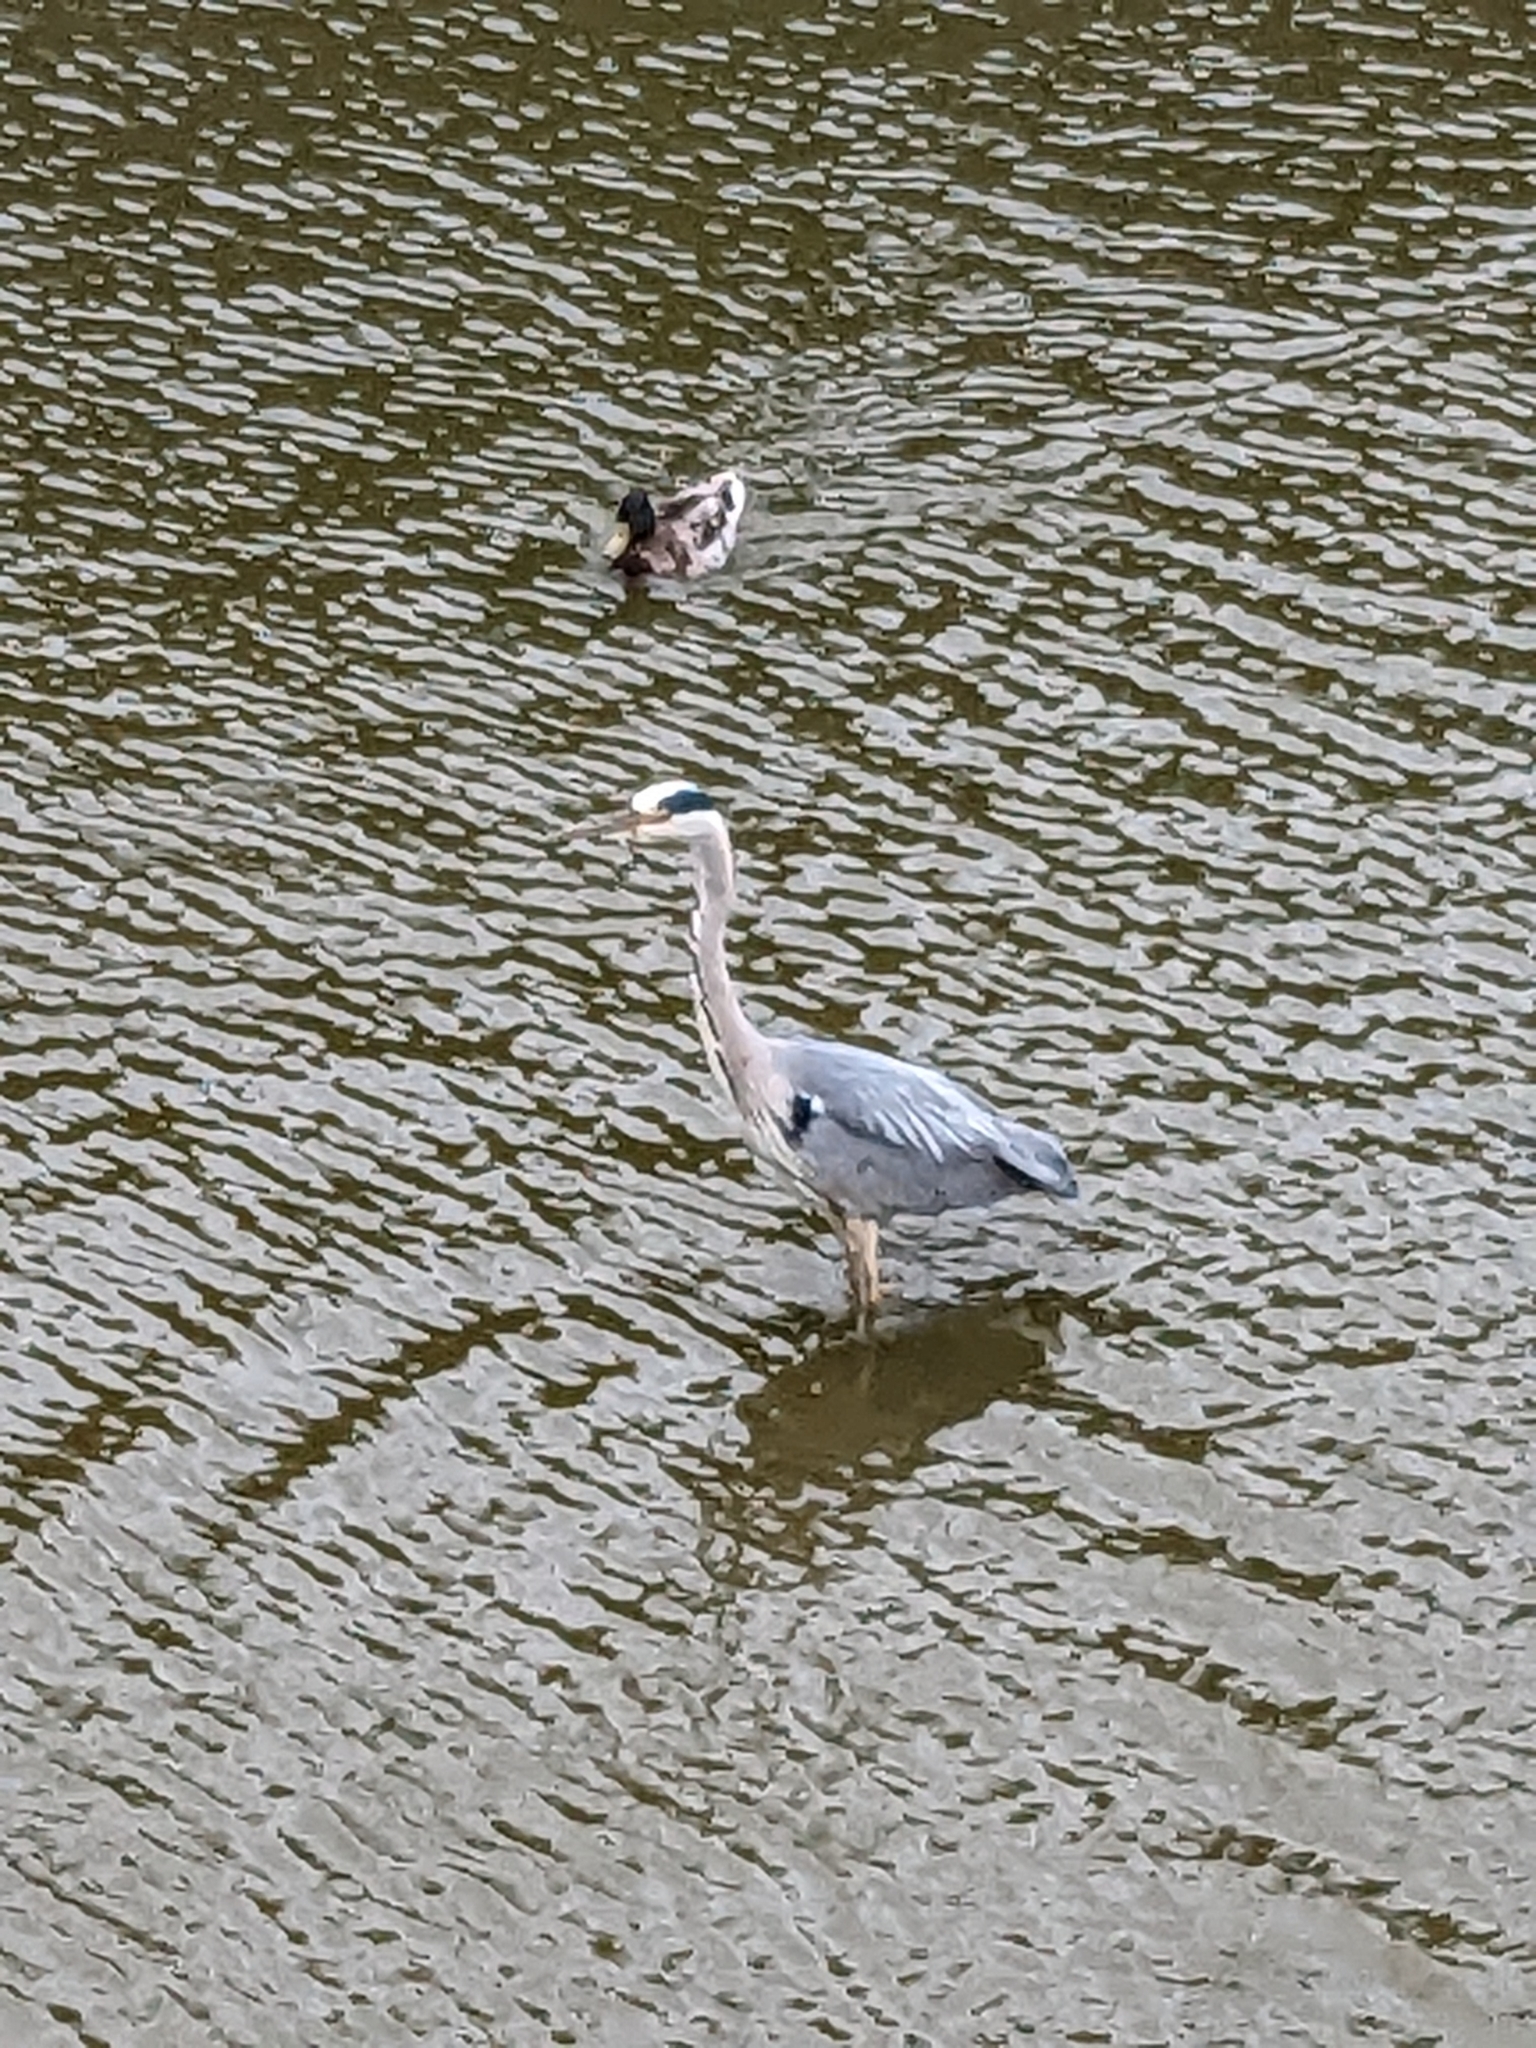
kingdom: Animalia
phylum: Chordata
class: Aves
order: Pelecaniformes
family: Ardeidae
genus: Ardea
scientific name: Ardea cinerea
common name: Grey heron
